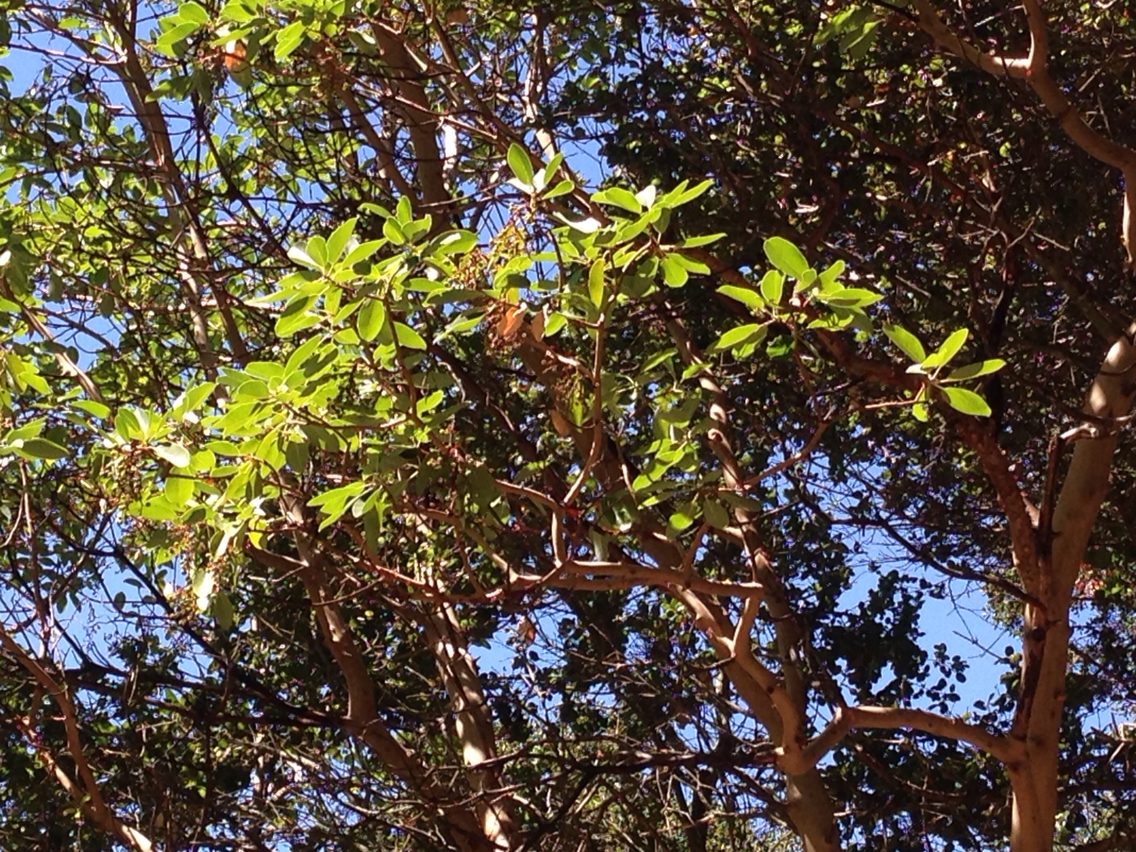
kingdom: Plantae
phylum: Tracheophyta
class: Magnoliopsida
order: Ericales
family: Ericaceae
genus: Arbutus
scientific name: Arbutus menziesii
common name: Pacific madrone
